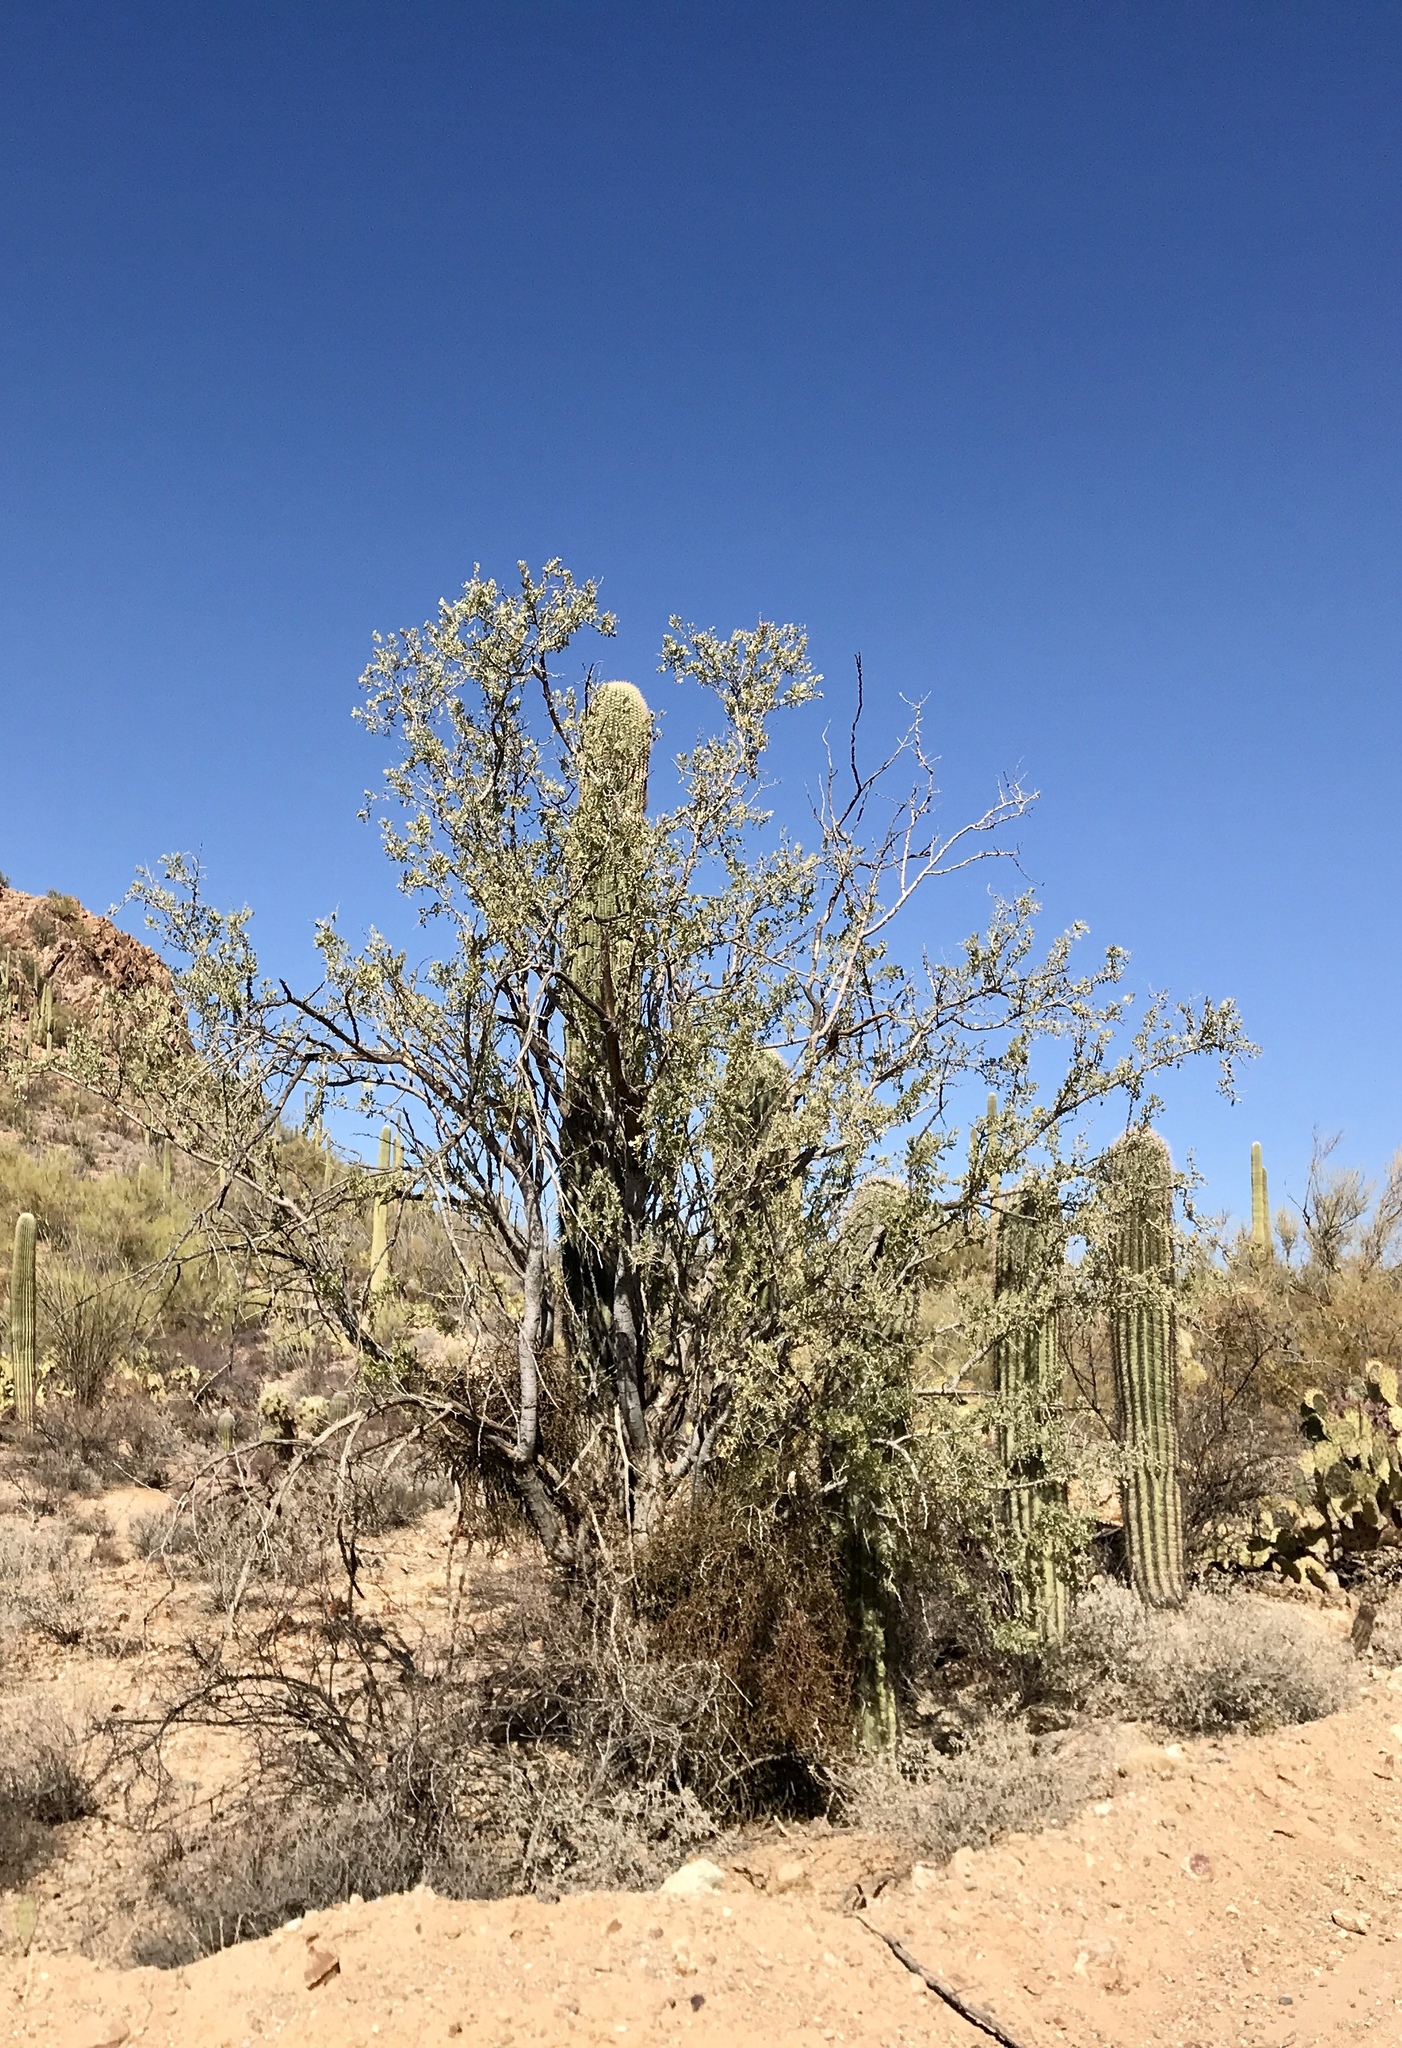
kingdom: Plantae
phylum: Tracheophyta
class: Magnoliopsida
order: Fabales
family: Fabaceae
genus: Olneya
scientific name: Olneya tesota
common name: Desert ironwood
